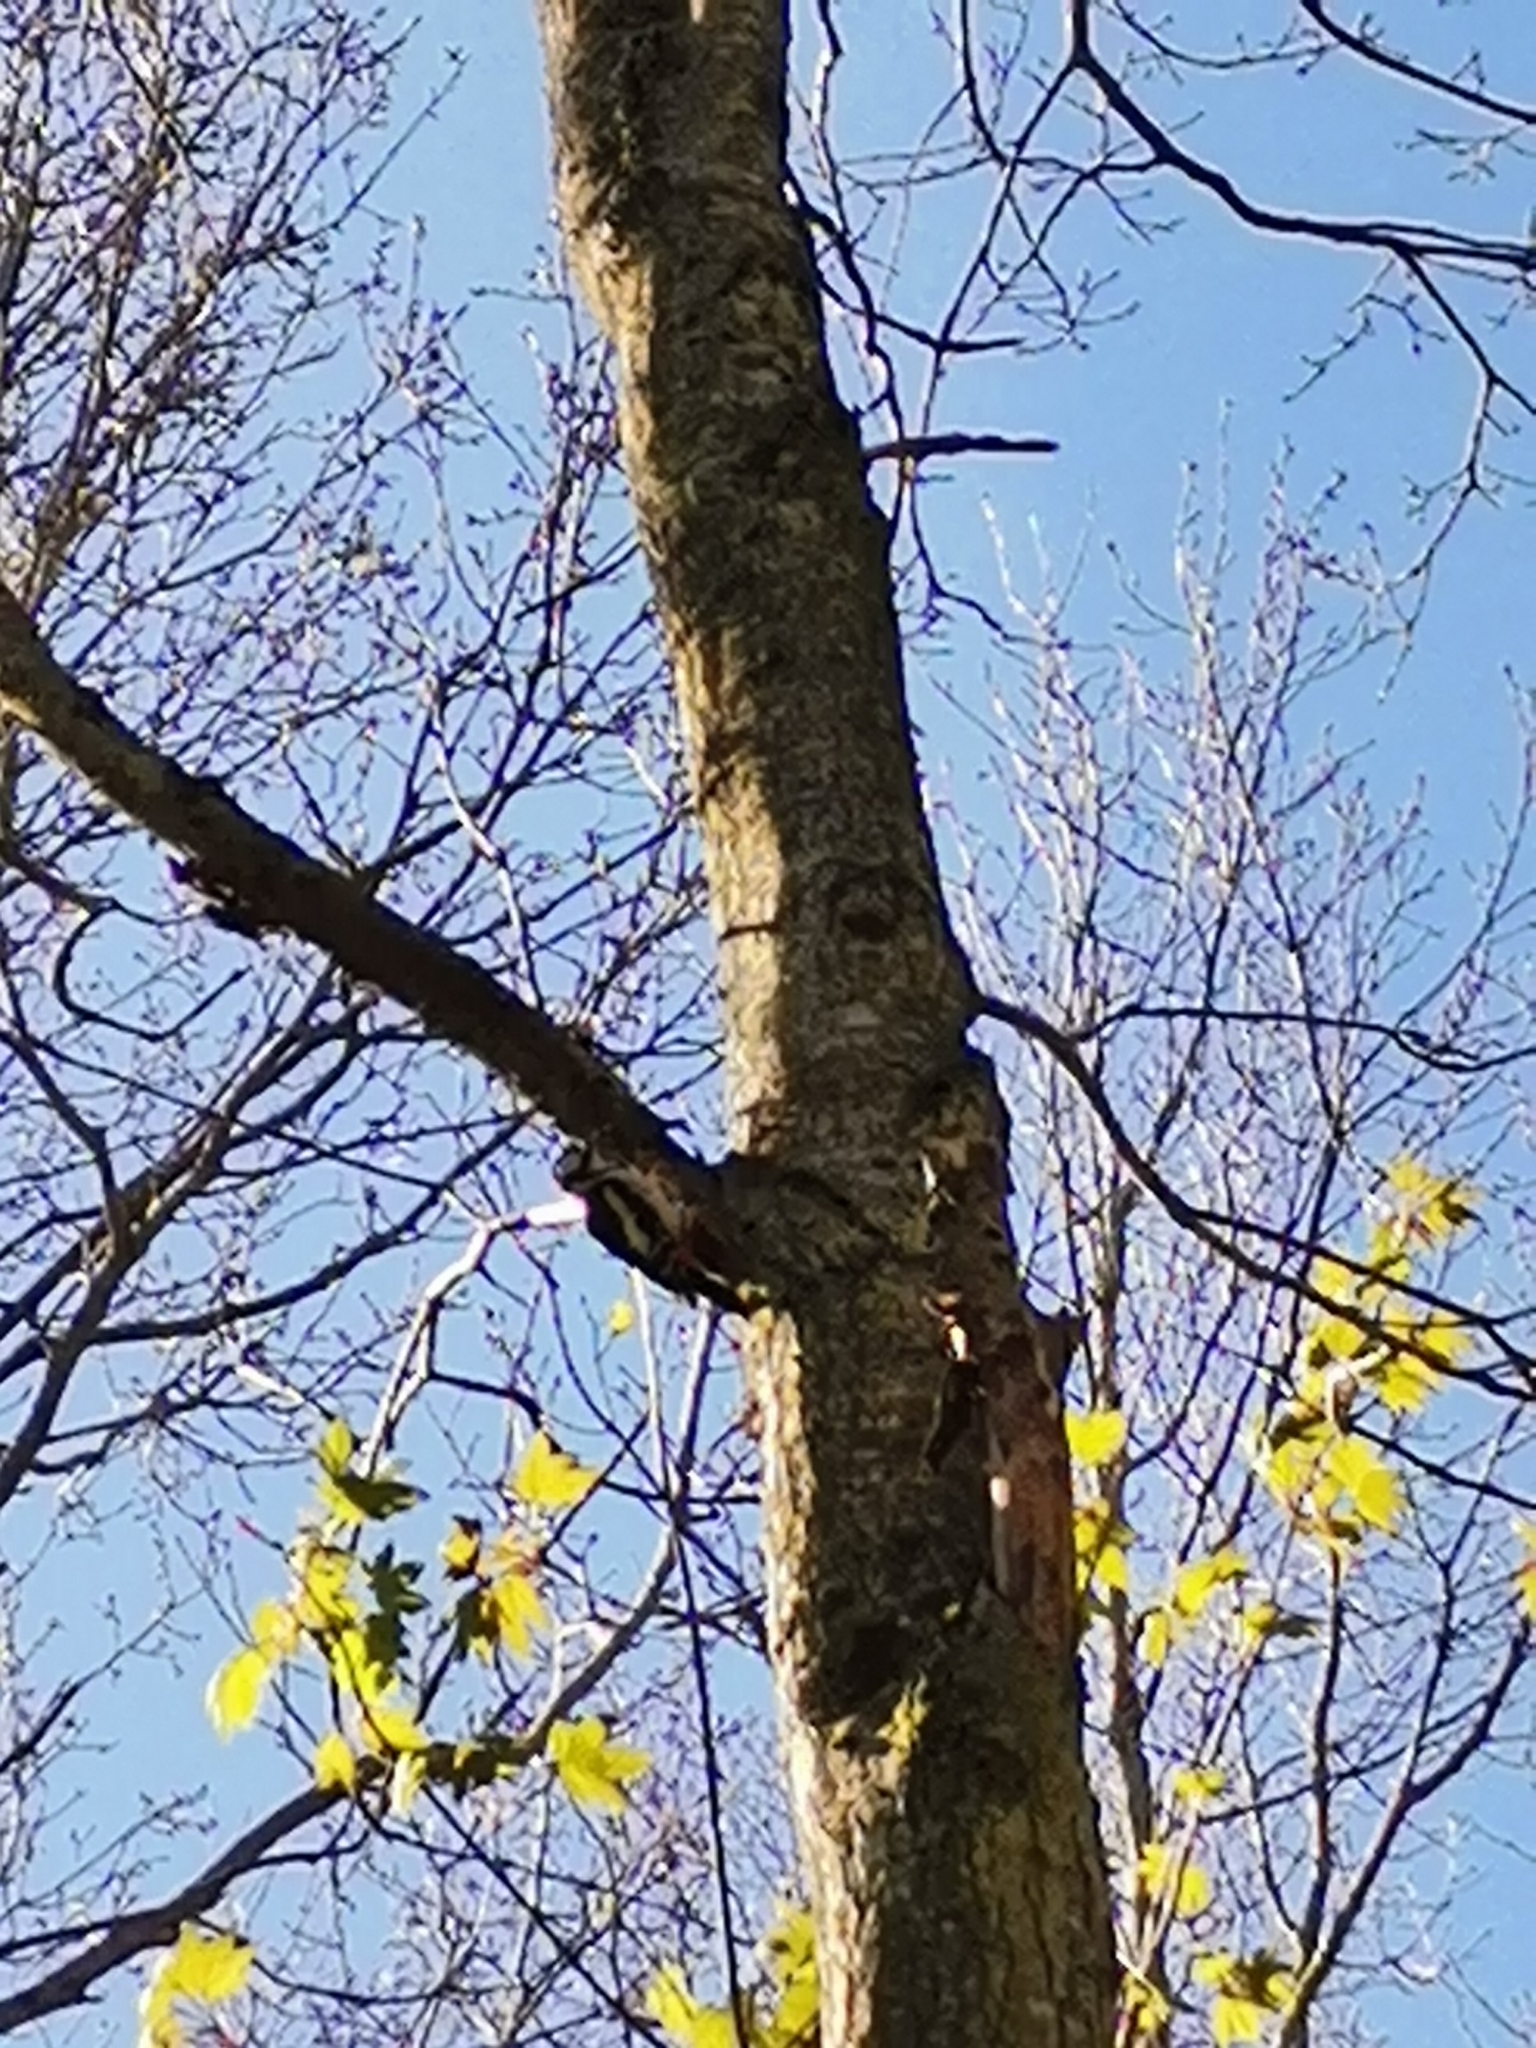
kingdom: Animalia
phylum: Chordata
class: Aves
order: Piciformes
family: Picidae
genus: Dendrocopos
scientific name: Dendrocopos major
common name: Great spotted woodpecker
